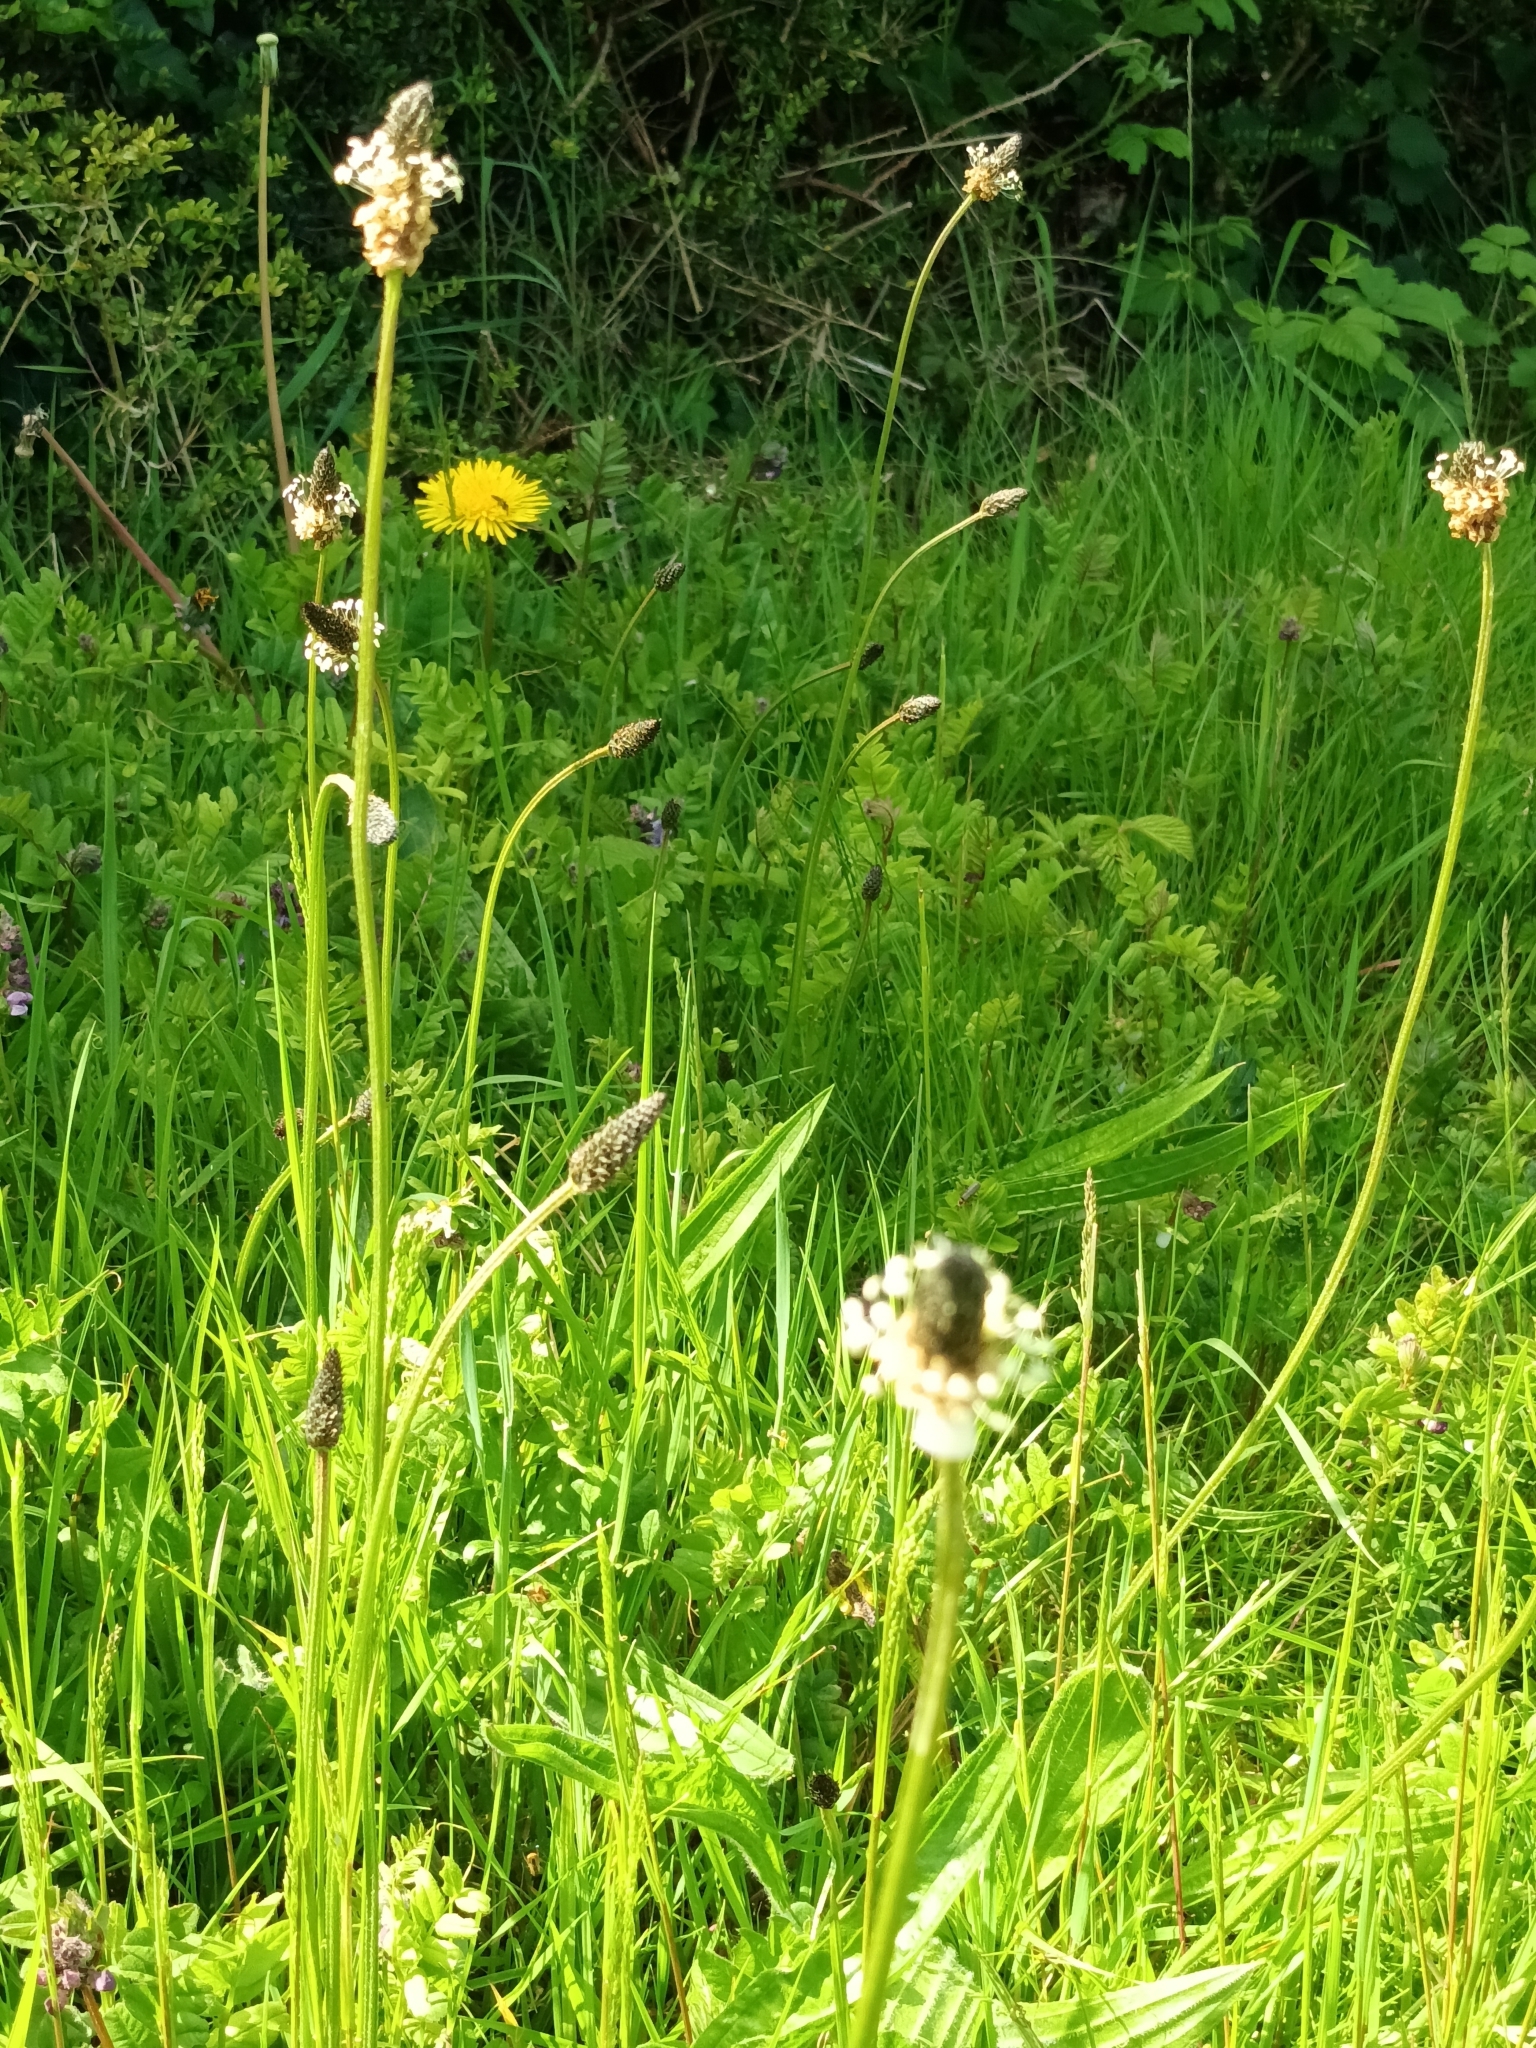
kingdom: Plantae
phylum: Tracheophyta
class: Magnoliopsida
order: Lamiales
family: Plantaginaceae
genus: Plantago
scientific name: Plantago lanceolata
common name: Ribwort plantain
